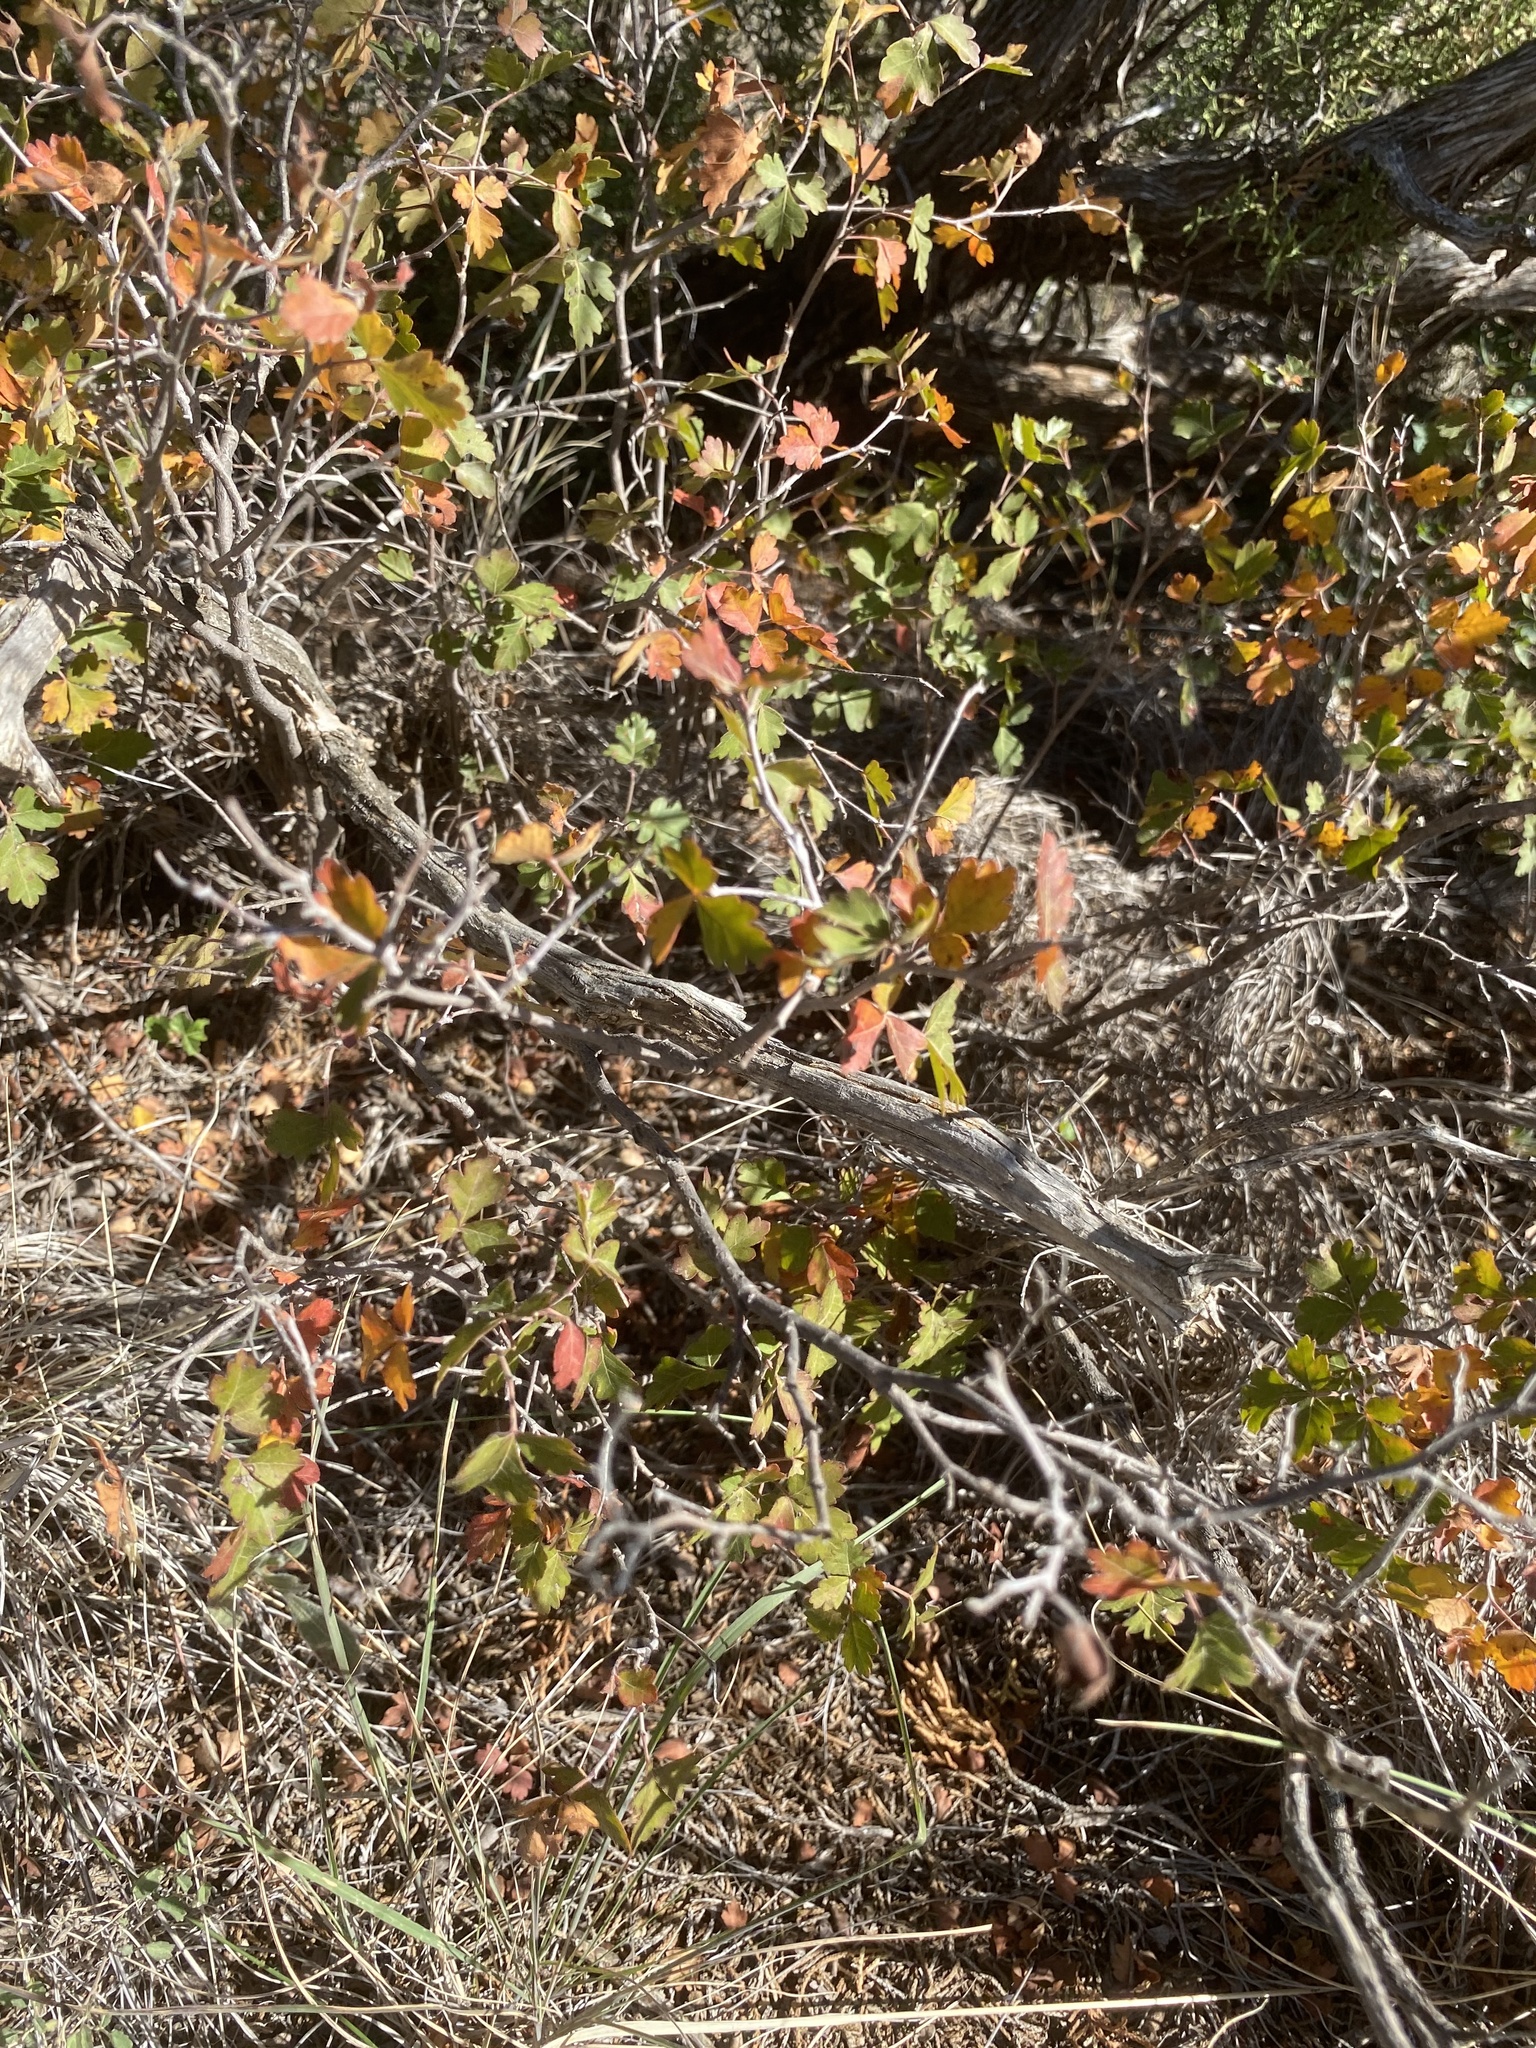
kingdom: Plantae
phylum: Tracheophyta
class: Magnoliopsida
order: Sapindales
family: Anacardiaceae
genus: Rhus
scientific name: Rhus aromatica
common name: Aromatic sumac
